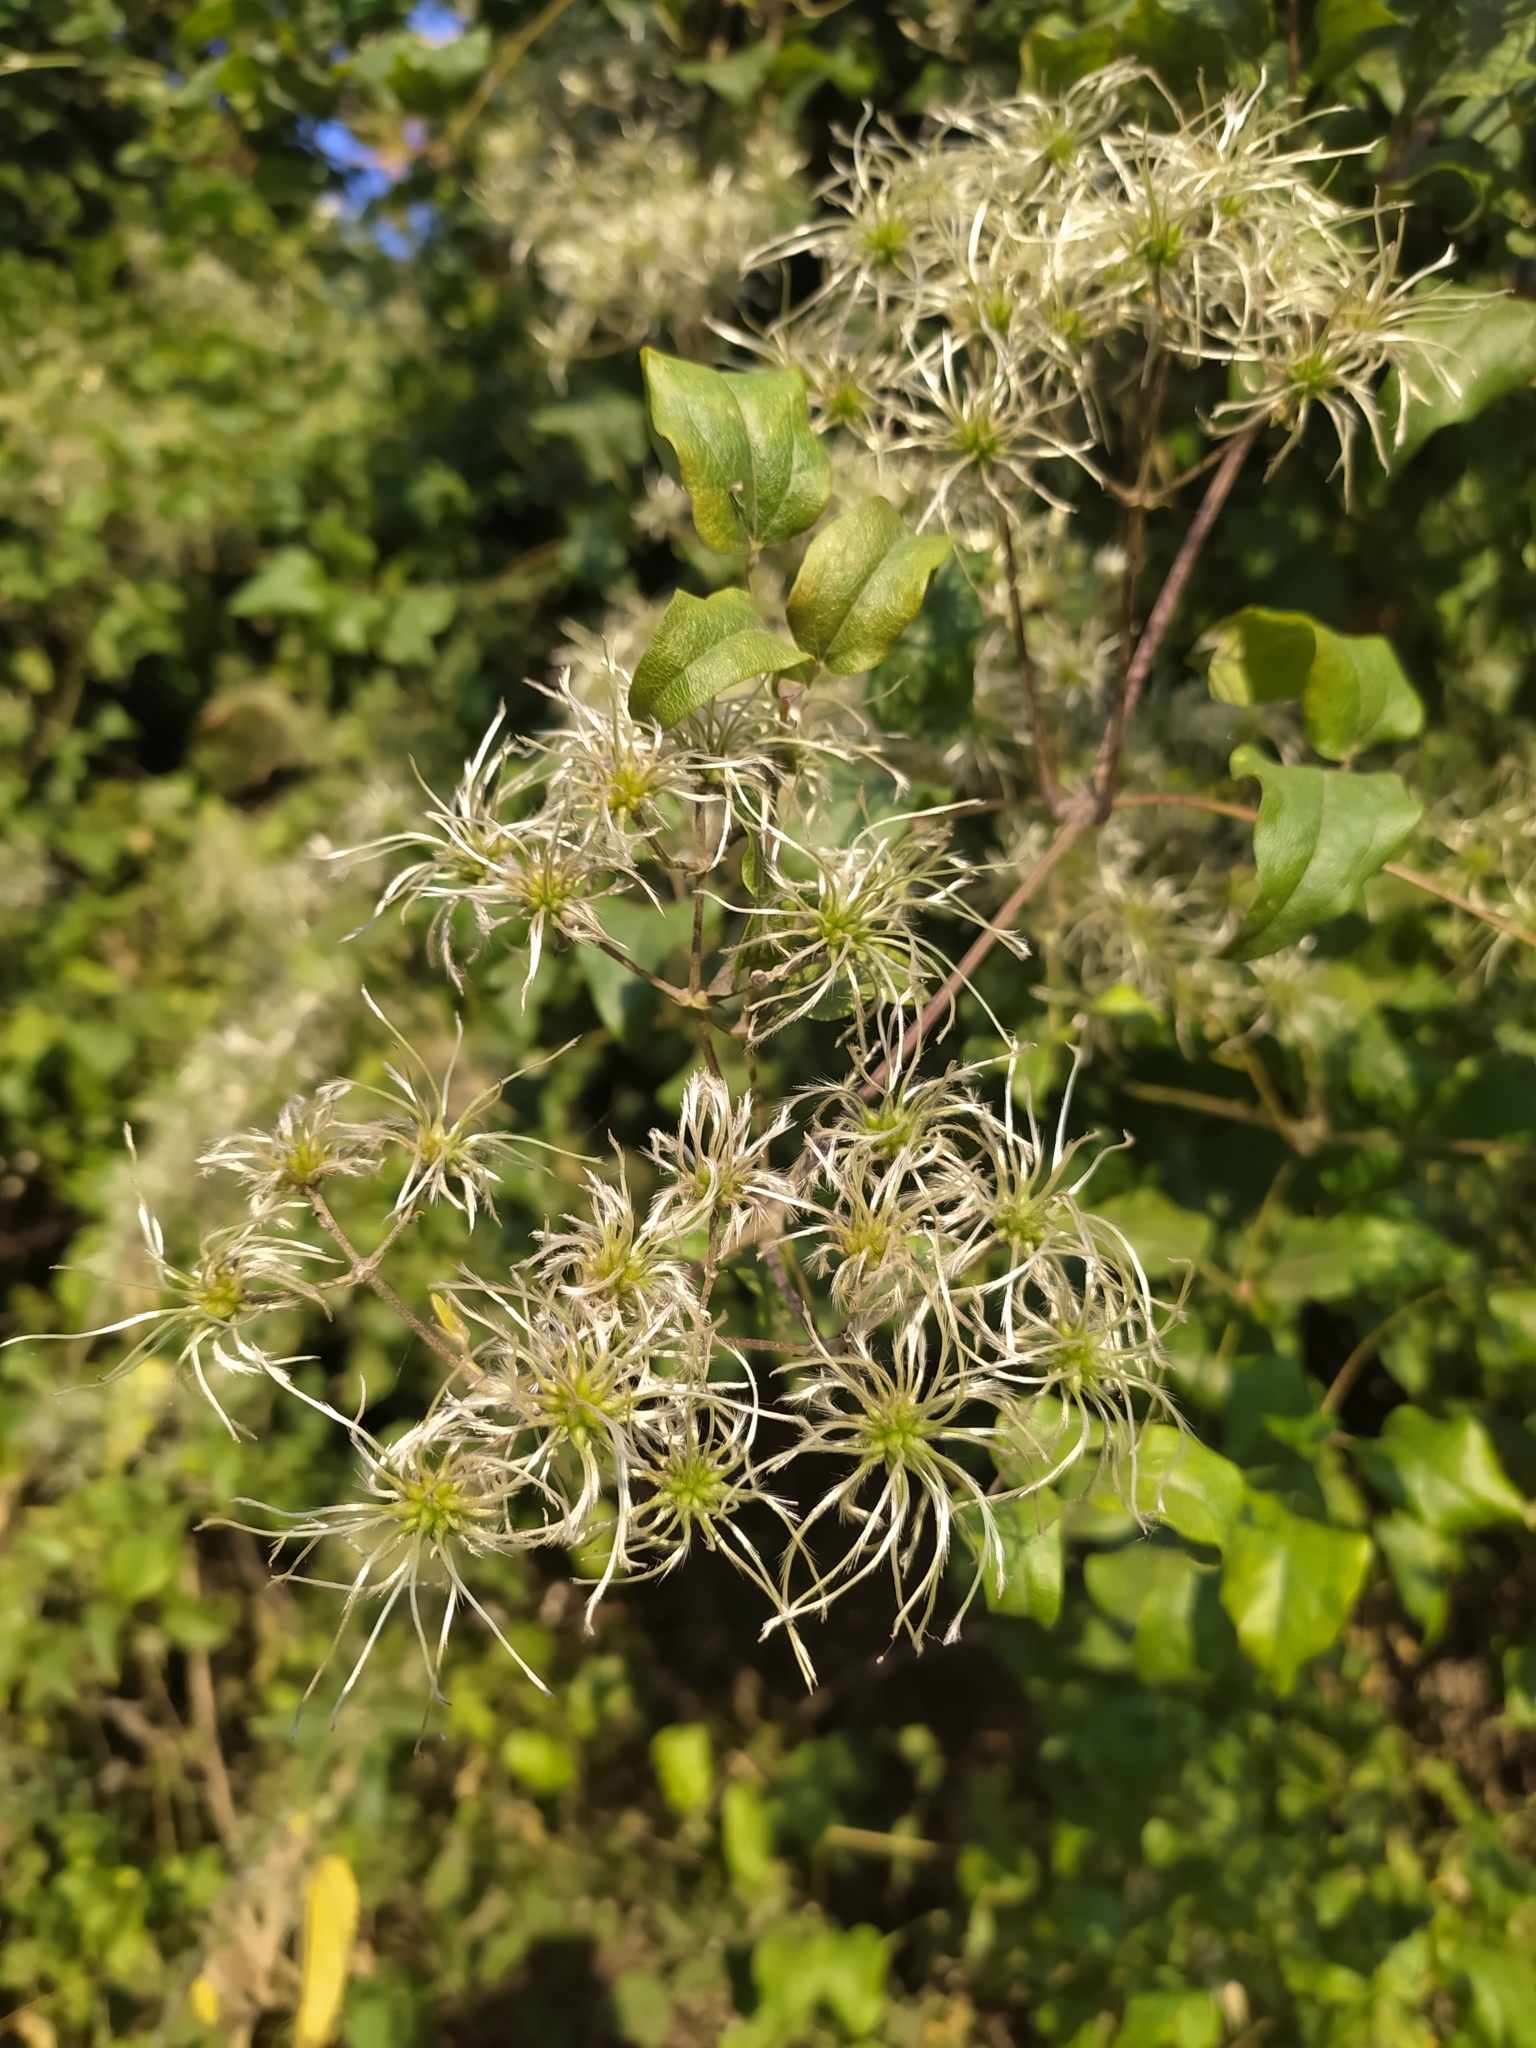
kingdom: Plantae
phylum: Tracheophyta
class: Magnoliopsida
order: Ranunculales
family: Ranunculaceae
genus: Clematis
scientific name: Clematis vitalba
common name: Evergreen clematis
